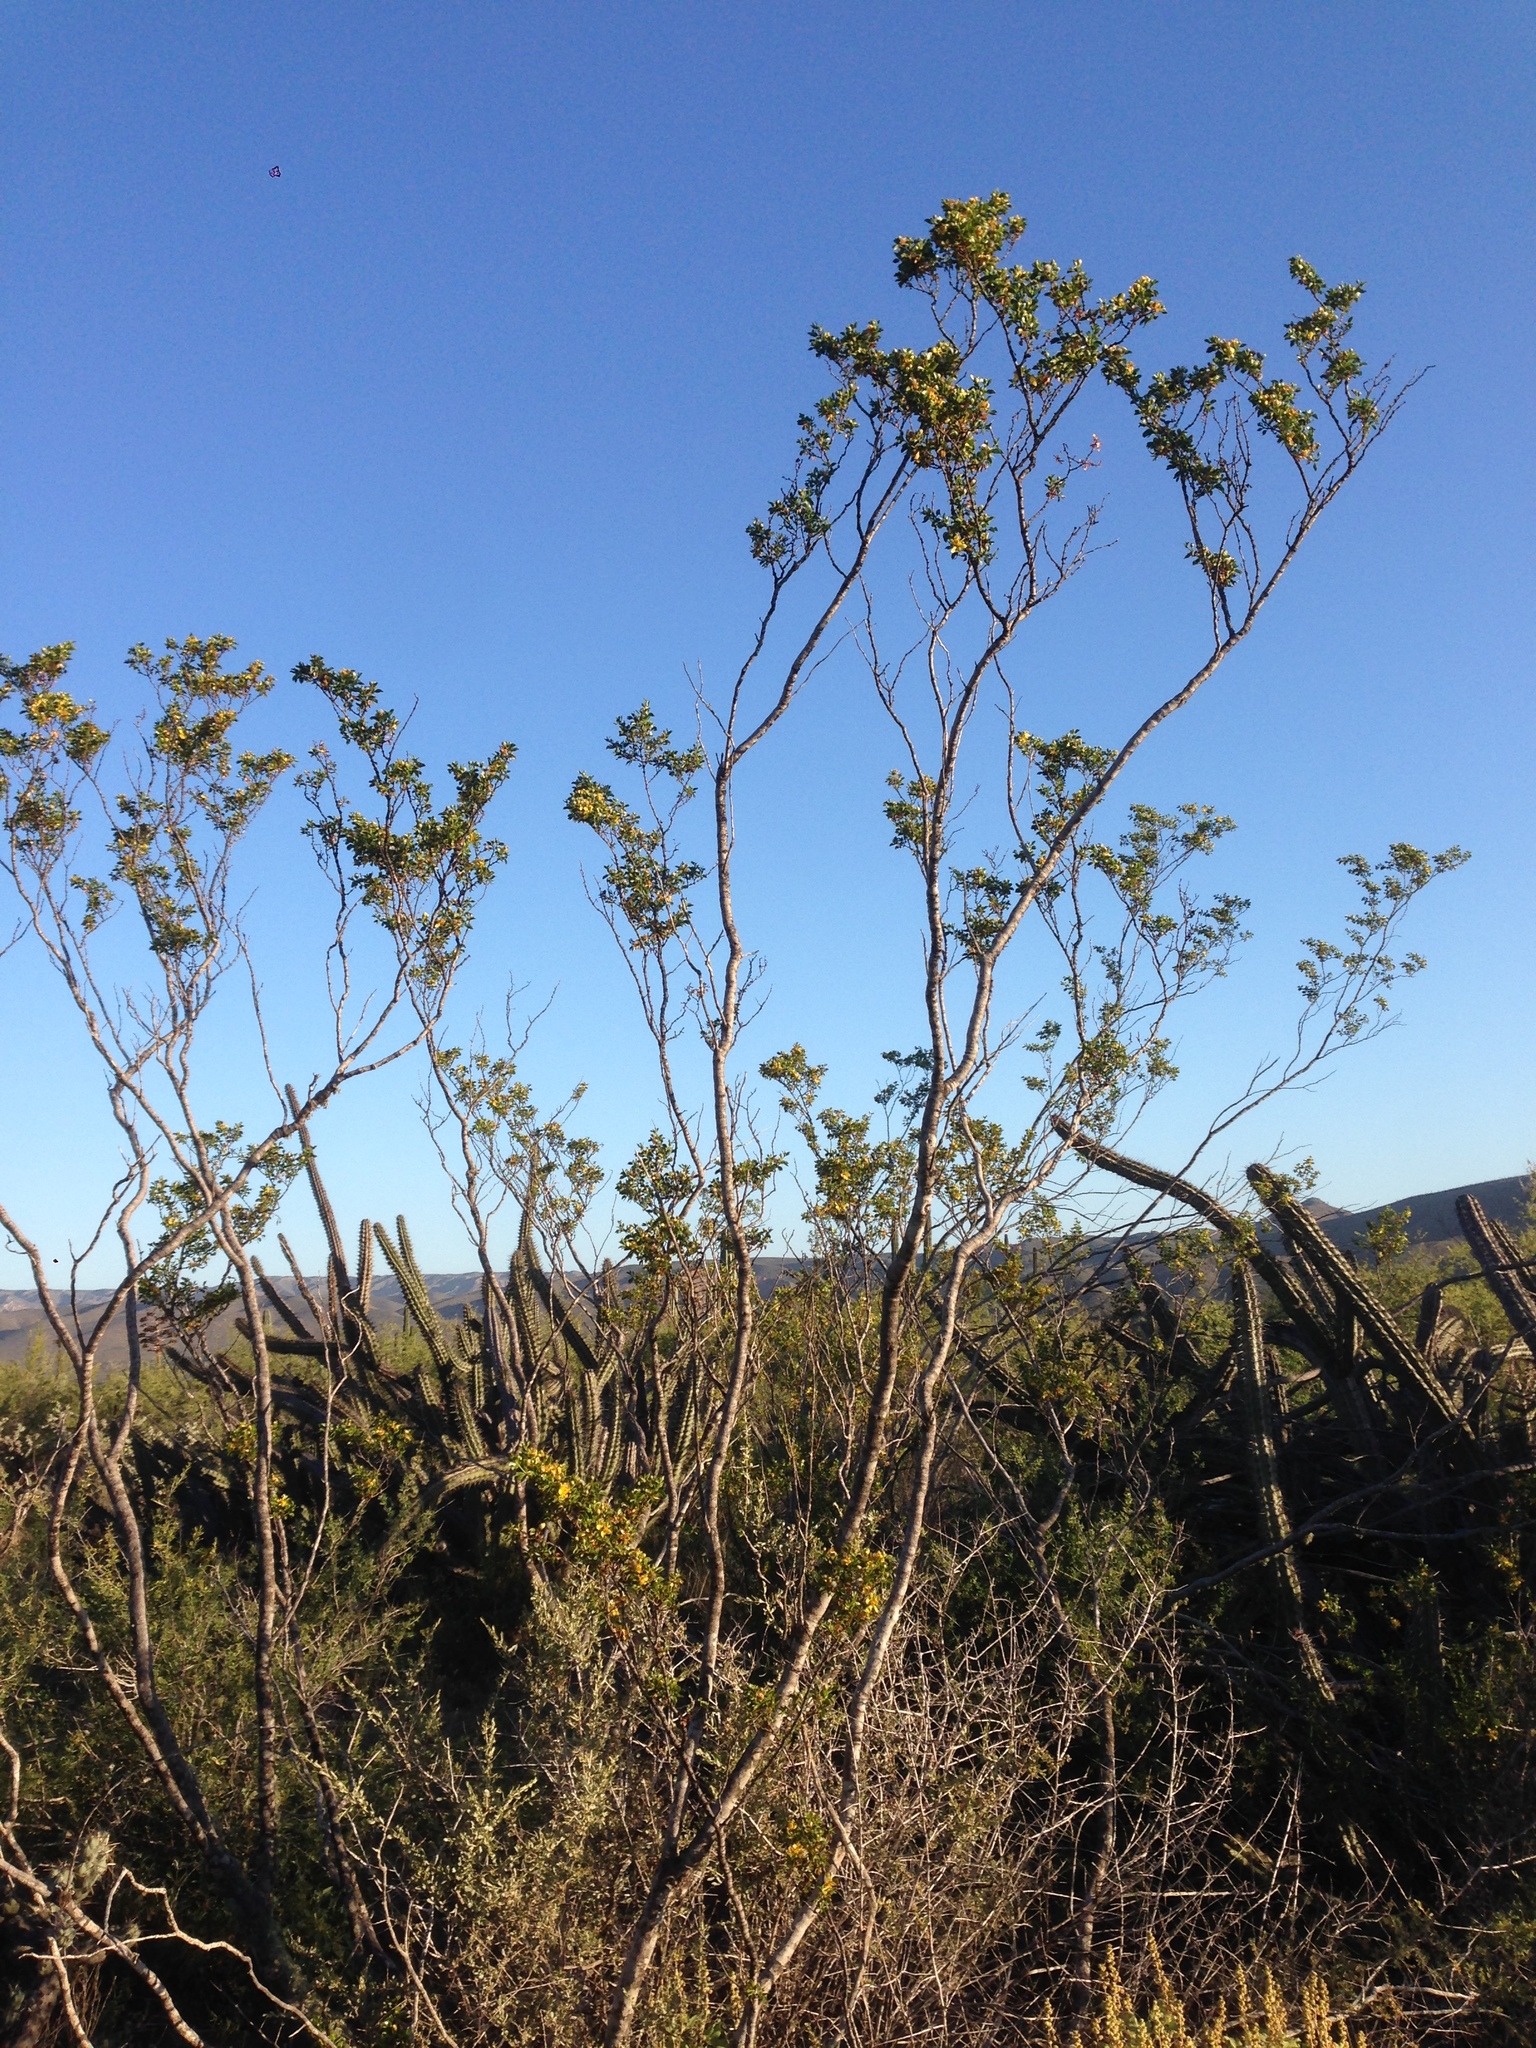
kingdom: Plantae
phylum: Tracheophyta
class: Magnoliopsida
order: Zygophyllales
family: Zygophyllaceae
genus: Larrea
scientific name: Larrea tridentata
